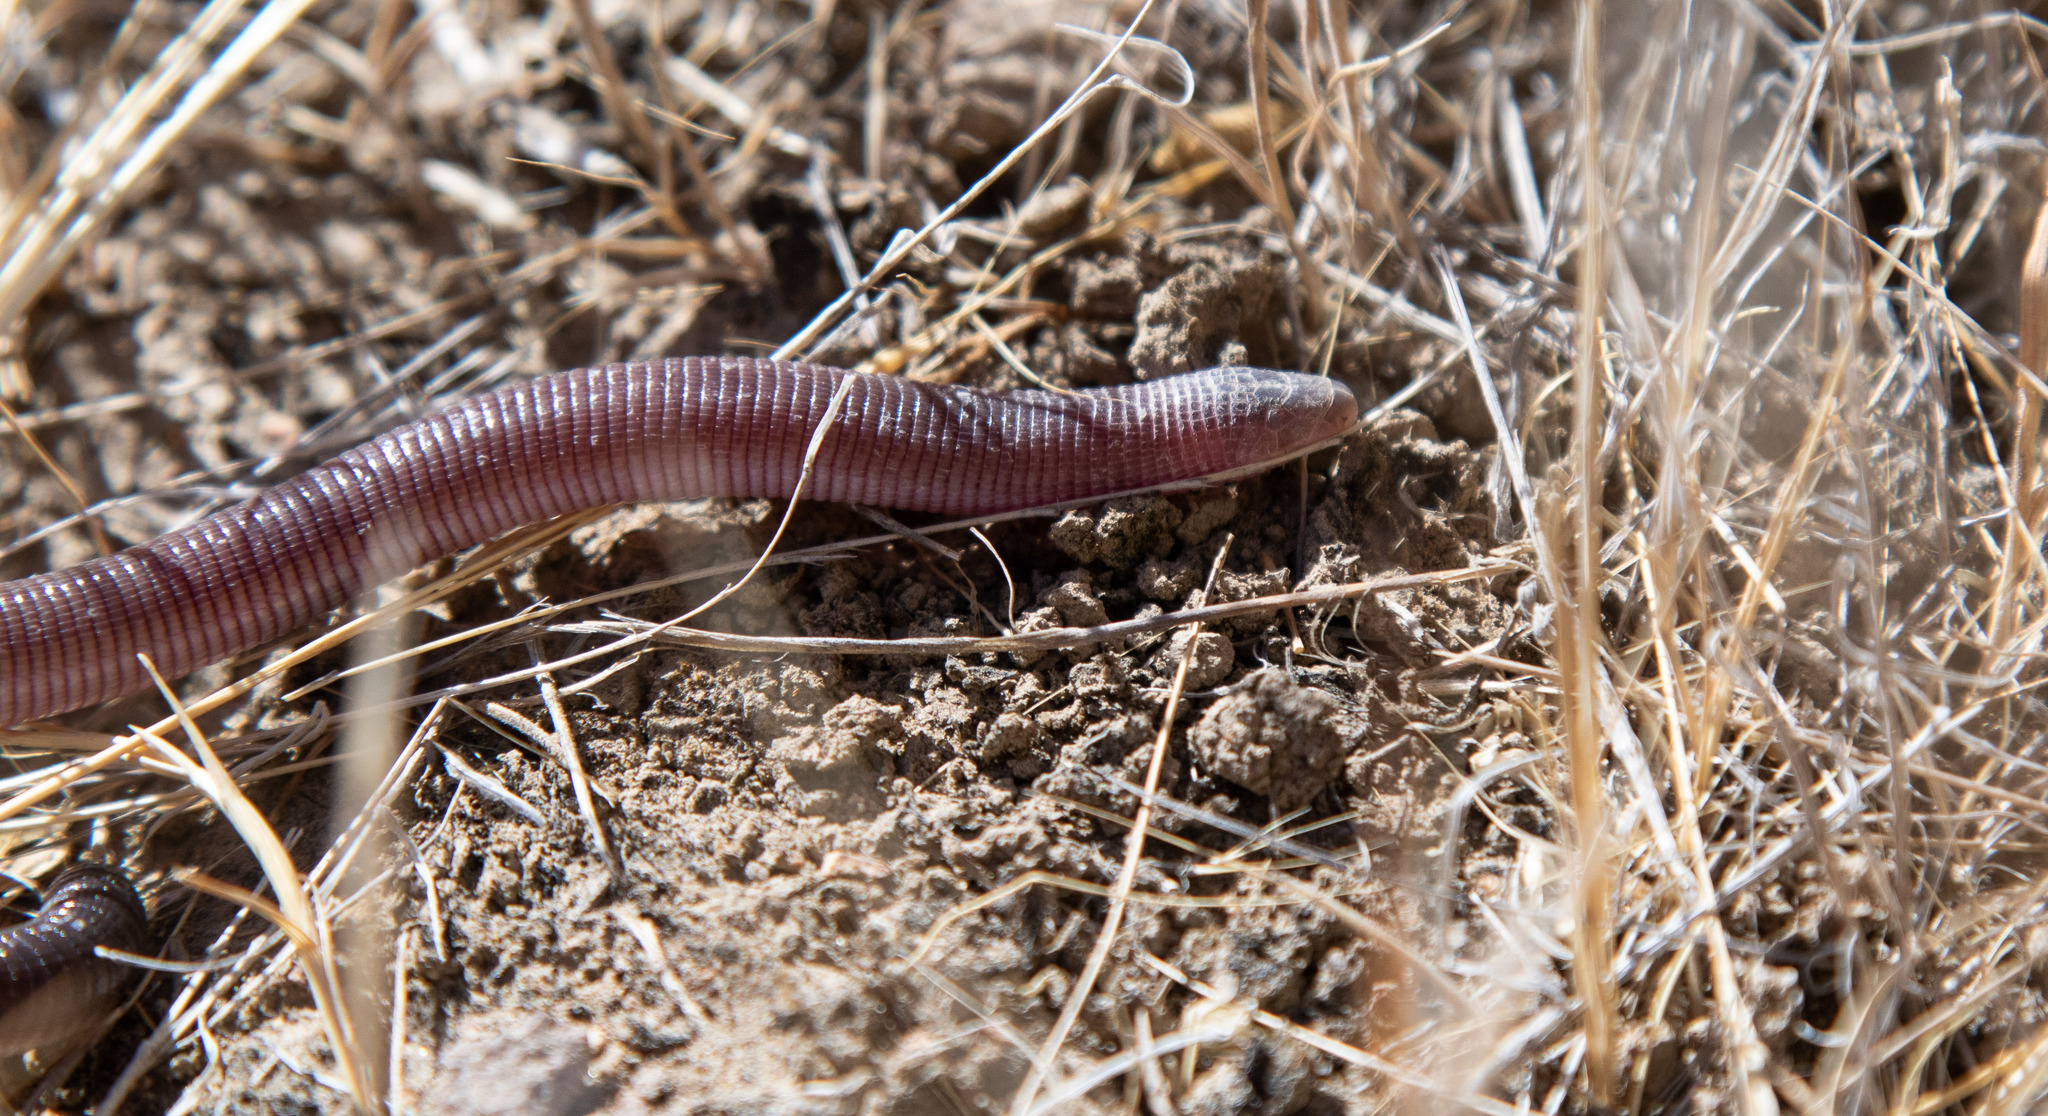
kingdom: Animalia
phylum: Chordata
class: Squamata
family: Amphisbaenidae
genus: Amphisbaena
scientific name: Amphisbaena plumbea
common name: Lead worm lizard
